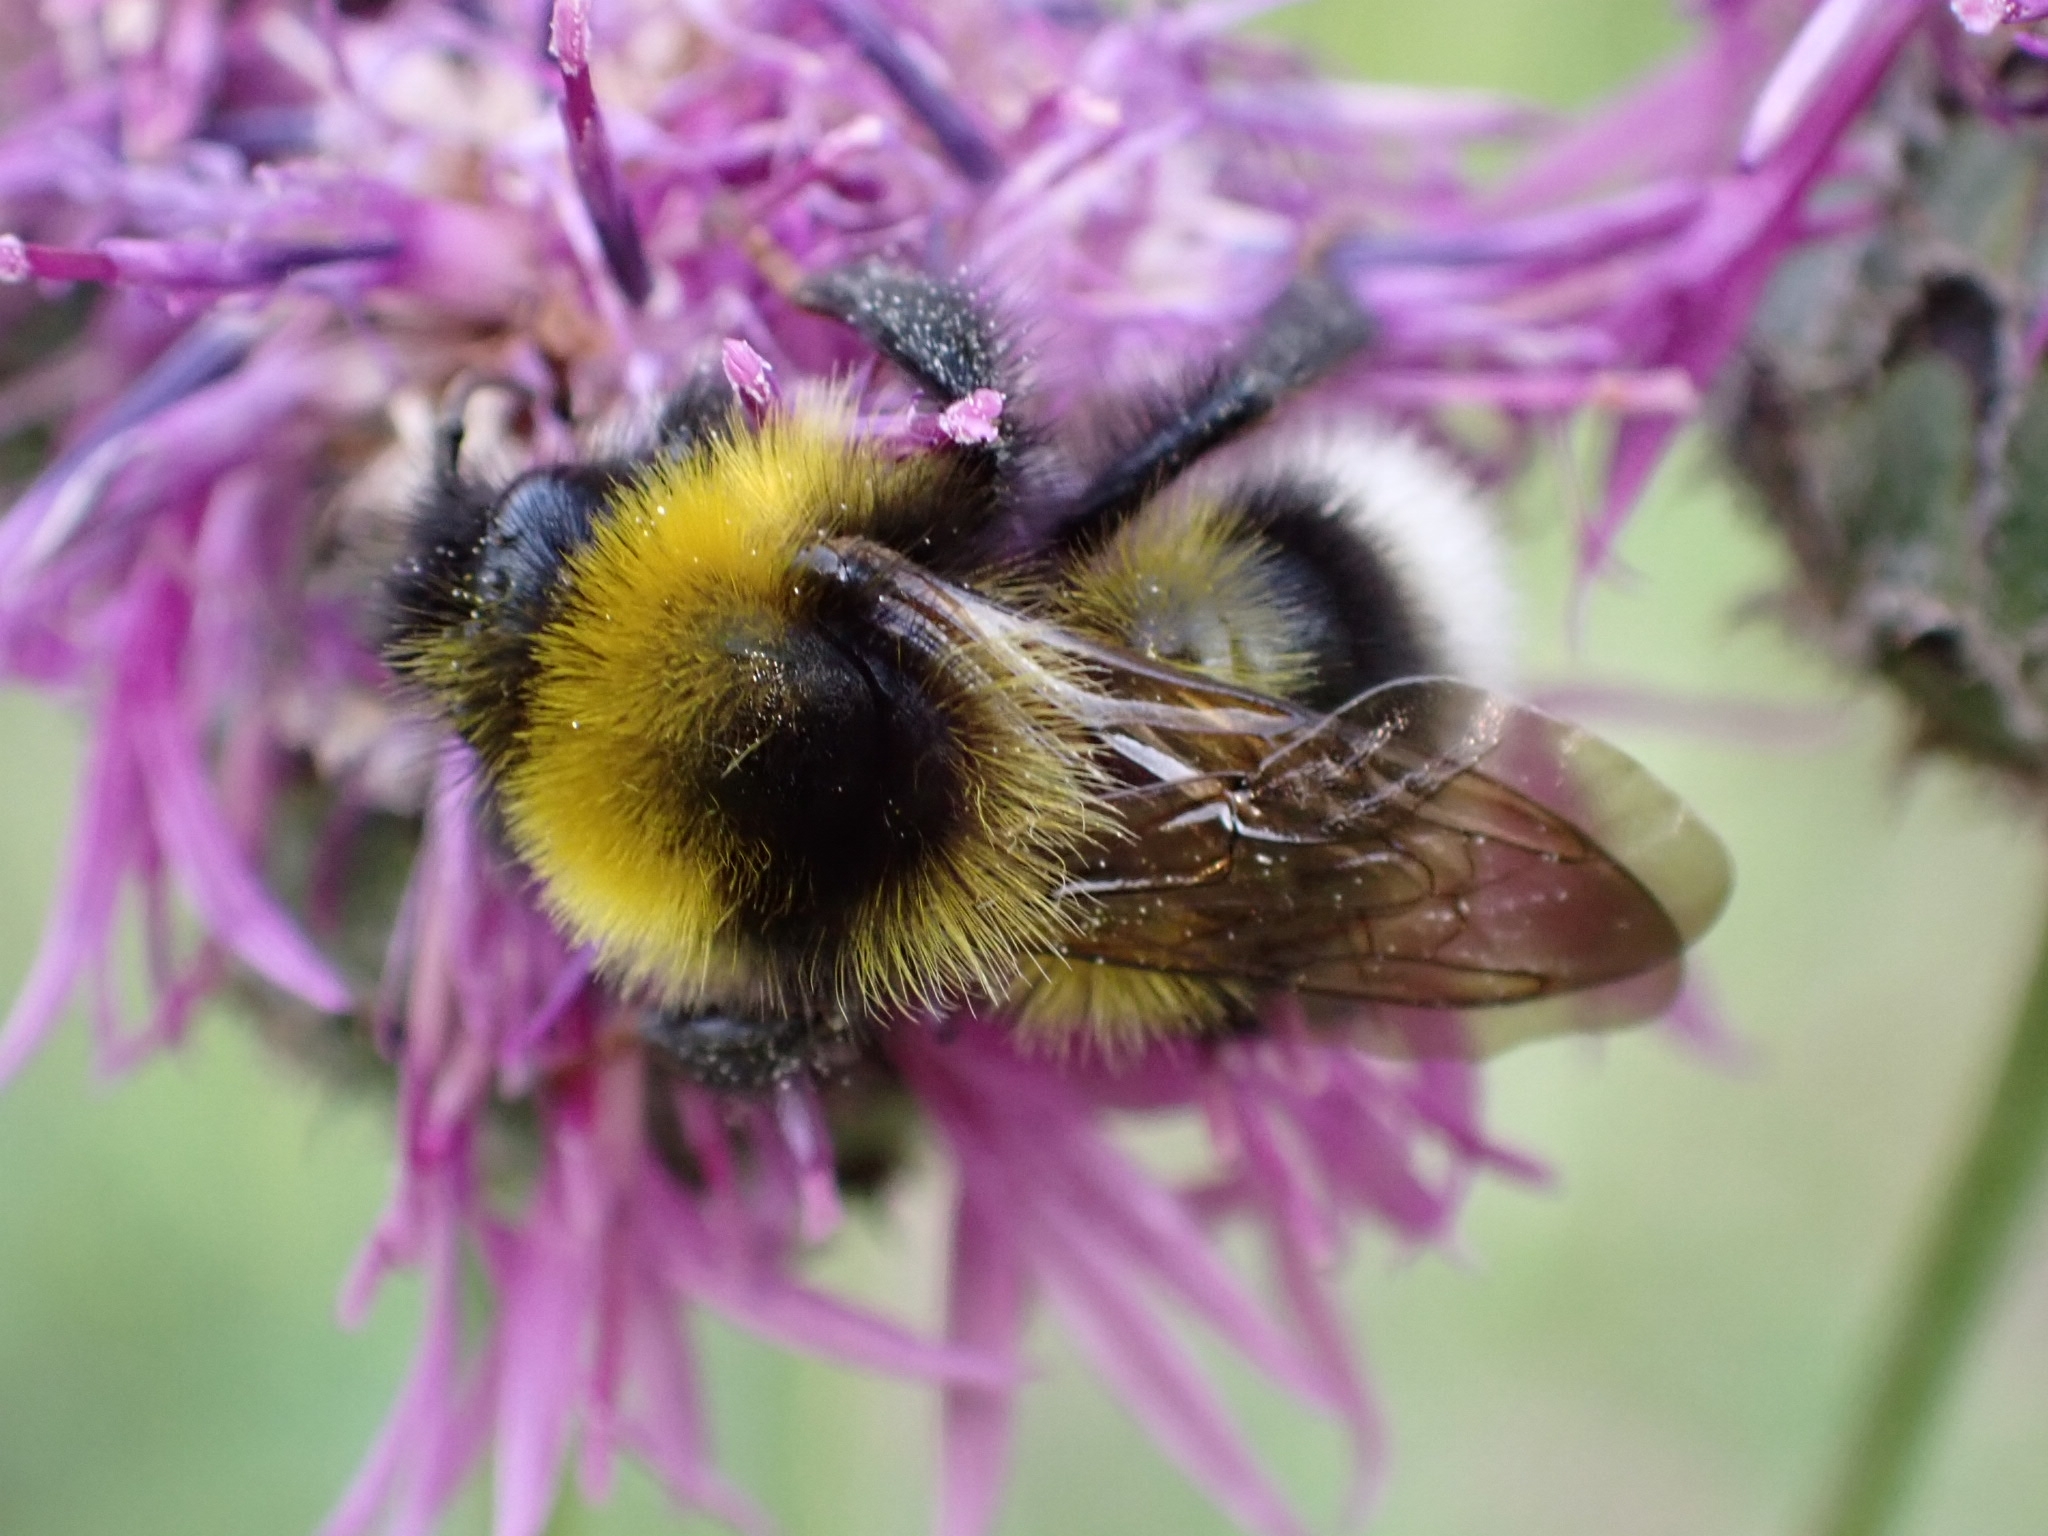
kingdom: Animalia
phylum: Arthropoda
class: Insecta
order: Hymenoptera
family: Apidae
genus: Bombus
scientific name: Bombus bohemicus
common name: Gypsy cuckoo bee
